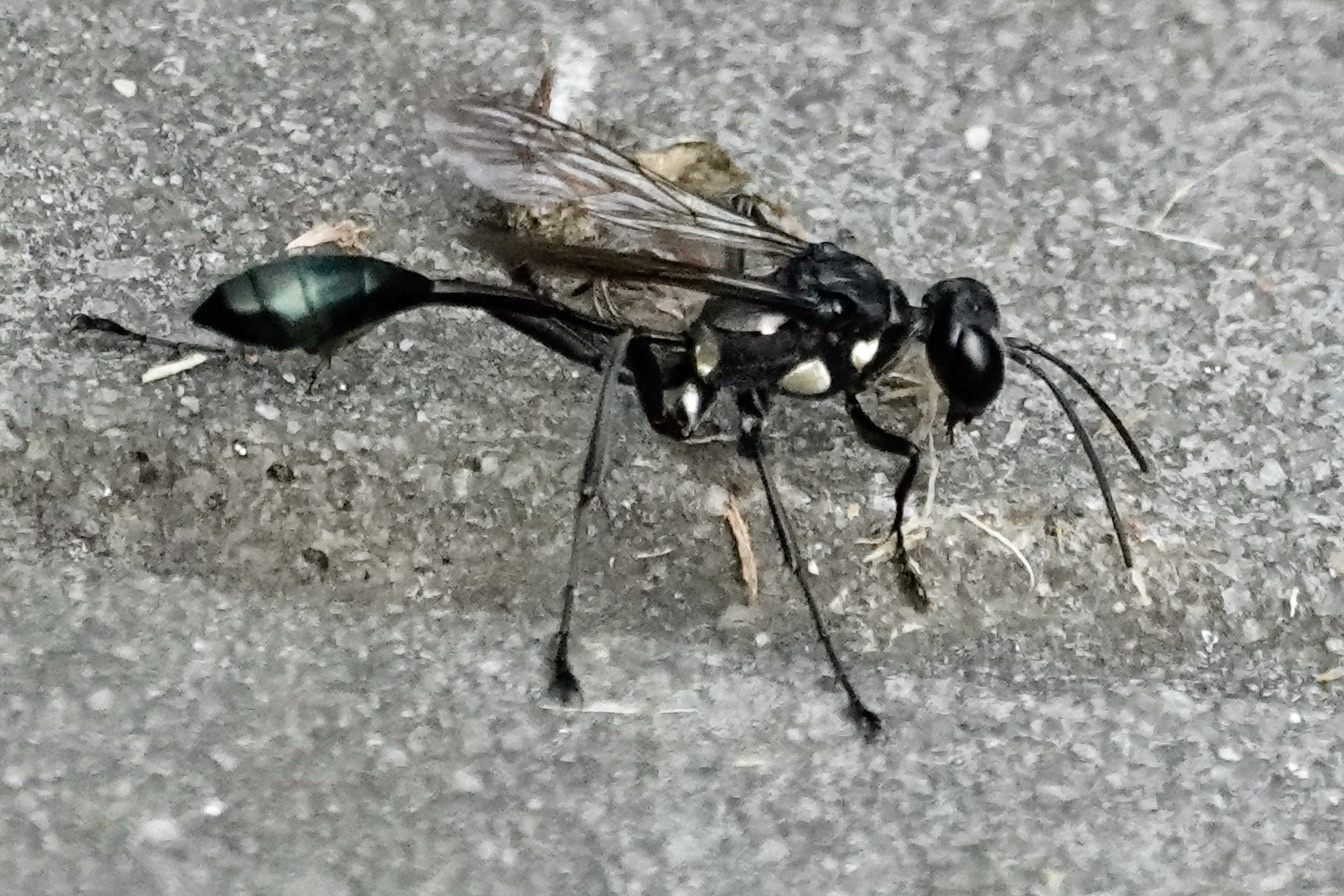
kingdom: Animalia
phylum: Arthropoda
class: Insecta
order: Hymenoptera
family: Sphecidae
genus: Eremnophila
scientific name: Eremnophila aureonotata
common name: Gold-marked thread-waisted wasp
